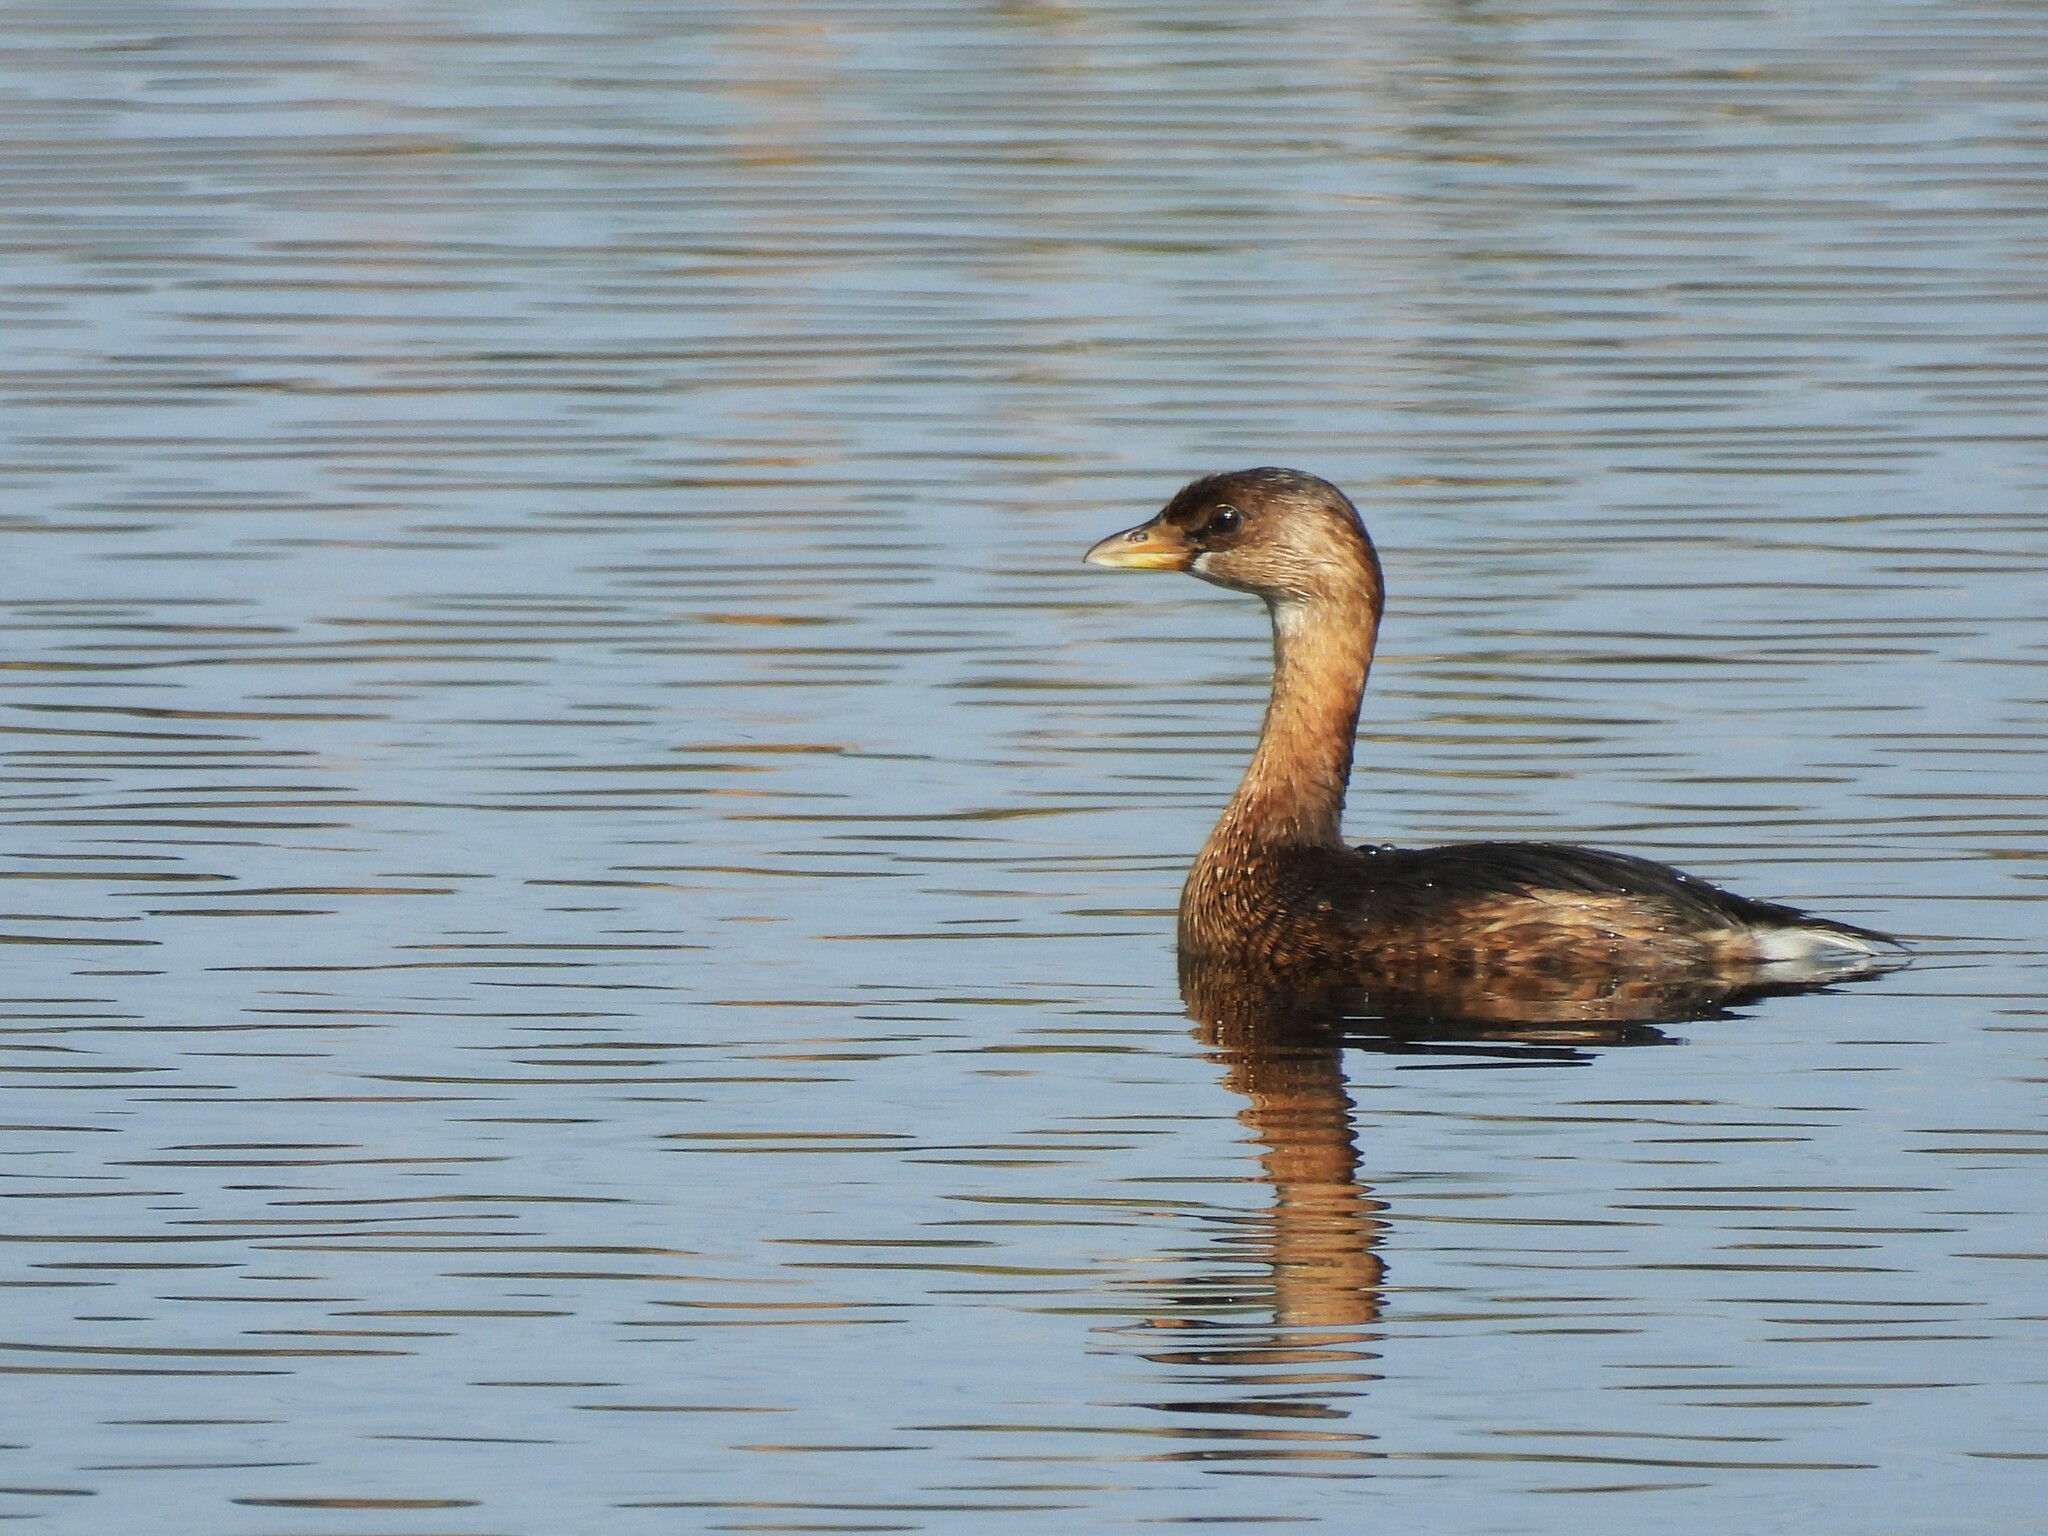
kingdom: Animalia
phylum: Chordata
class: Aves
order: Podicipediformes
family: Podicipedidae
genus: Podilymbus
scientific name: Podilymbus podiceps
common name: Pied-billed grebe
